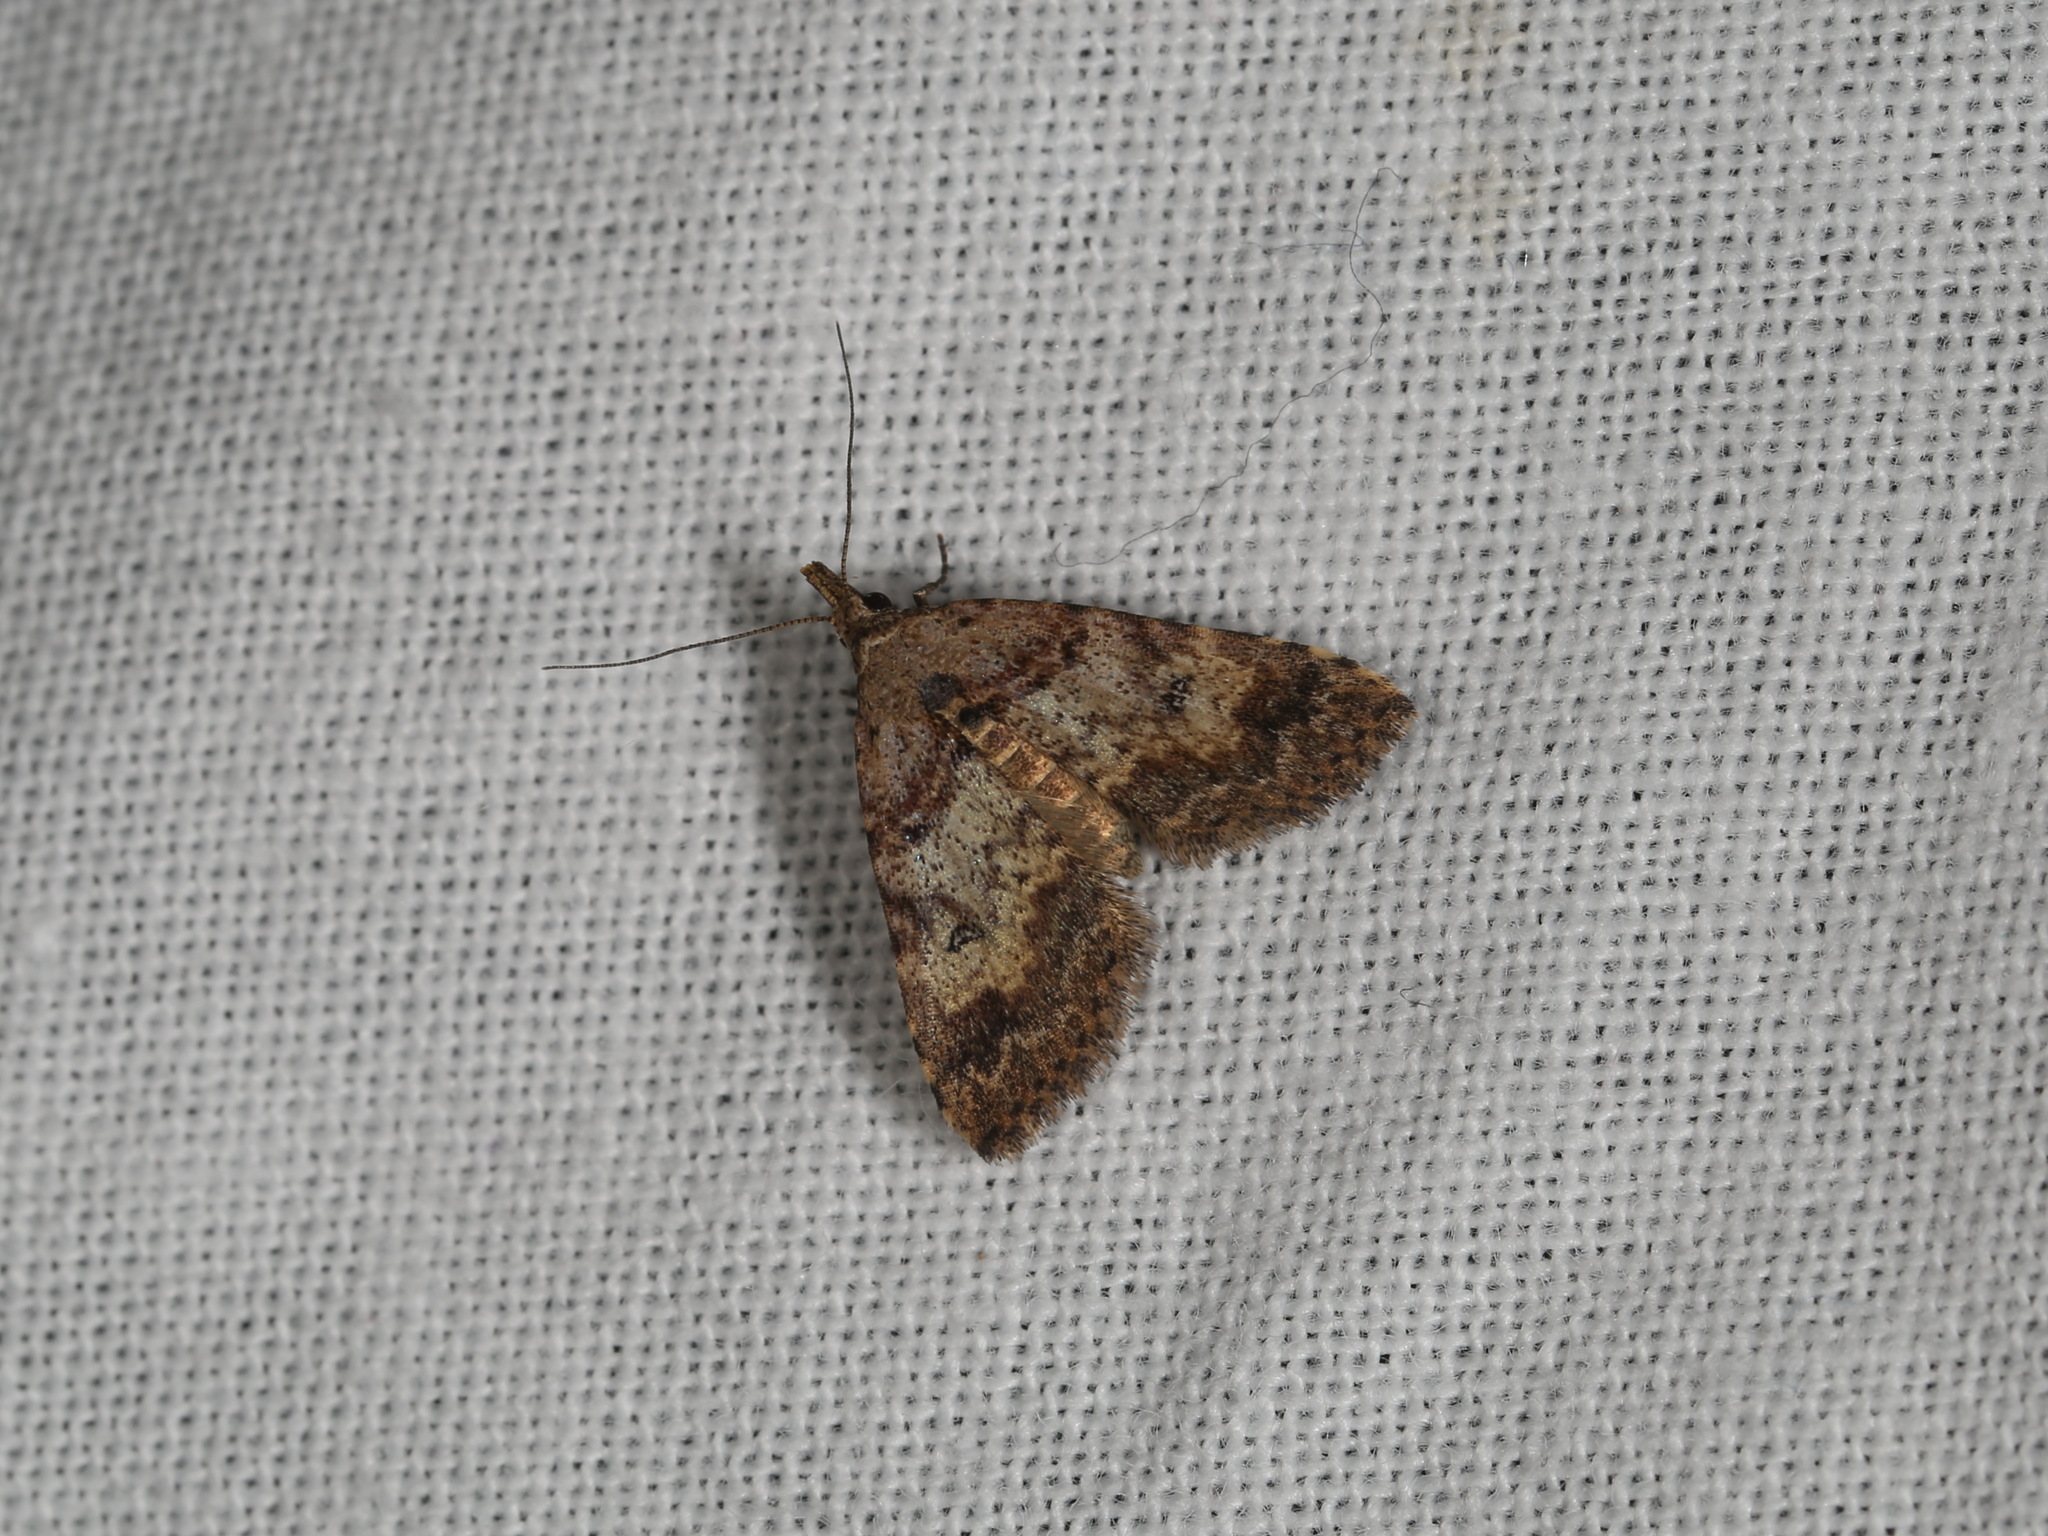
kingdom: Animalia
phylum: Arthropoda
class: Insecta
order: Lepidoptera
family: Erebidae
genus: Alapadna
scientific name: Alapadna pauropis
